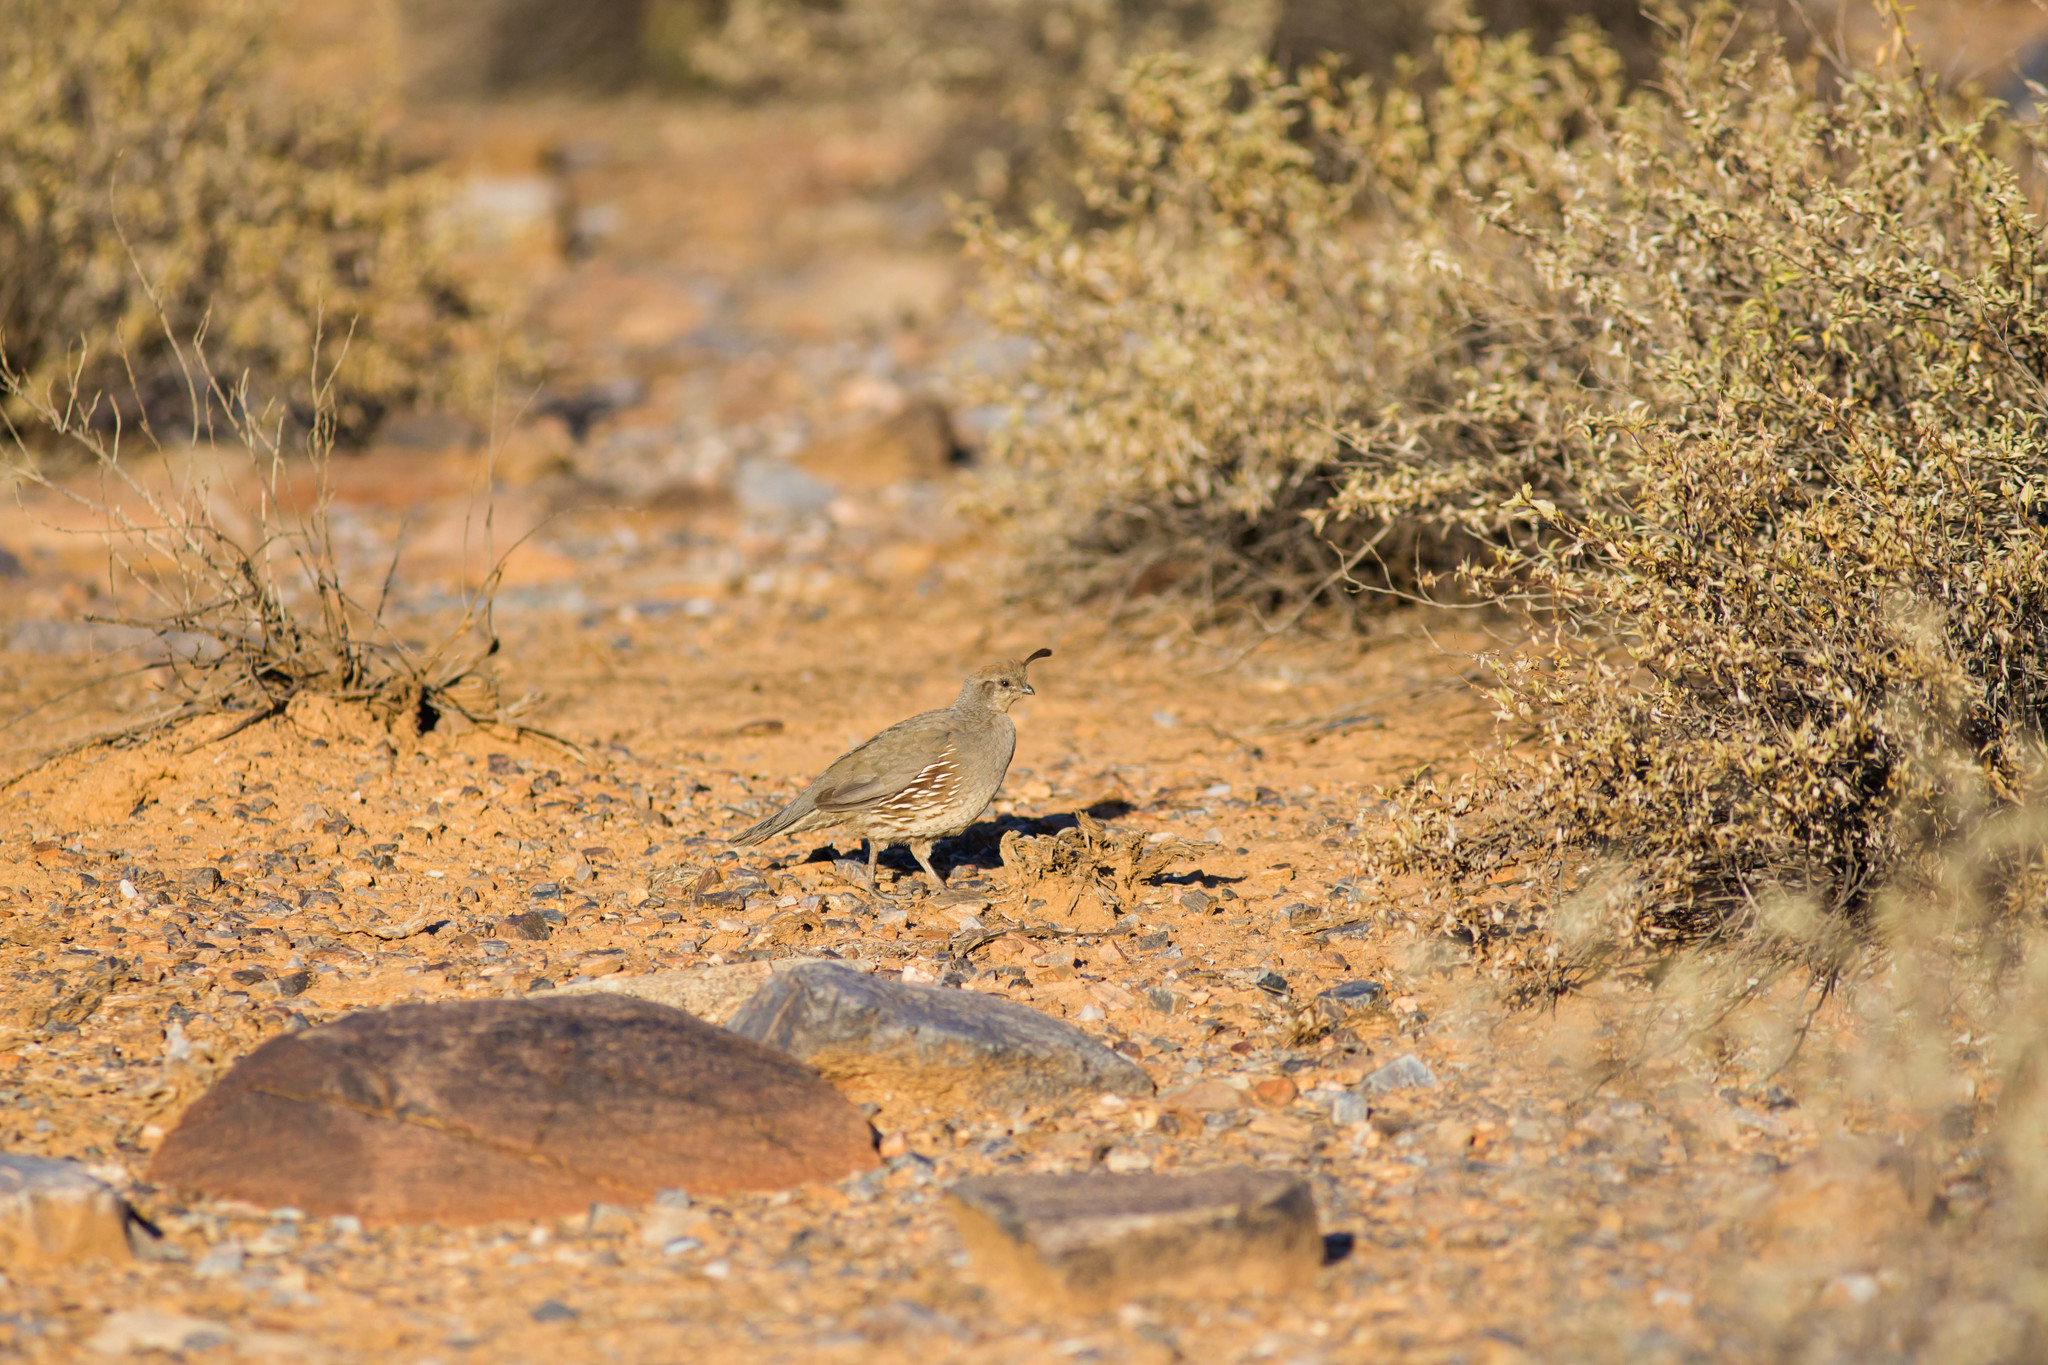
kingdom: Animalia
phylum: Chordata
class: Aves
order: Galliformes
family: Odontophoridae
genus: Callipepla
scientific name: Callipepla gambelii
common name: Gambel's quail
